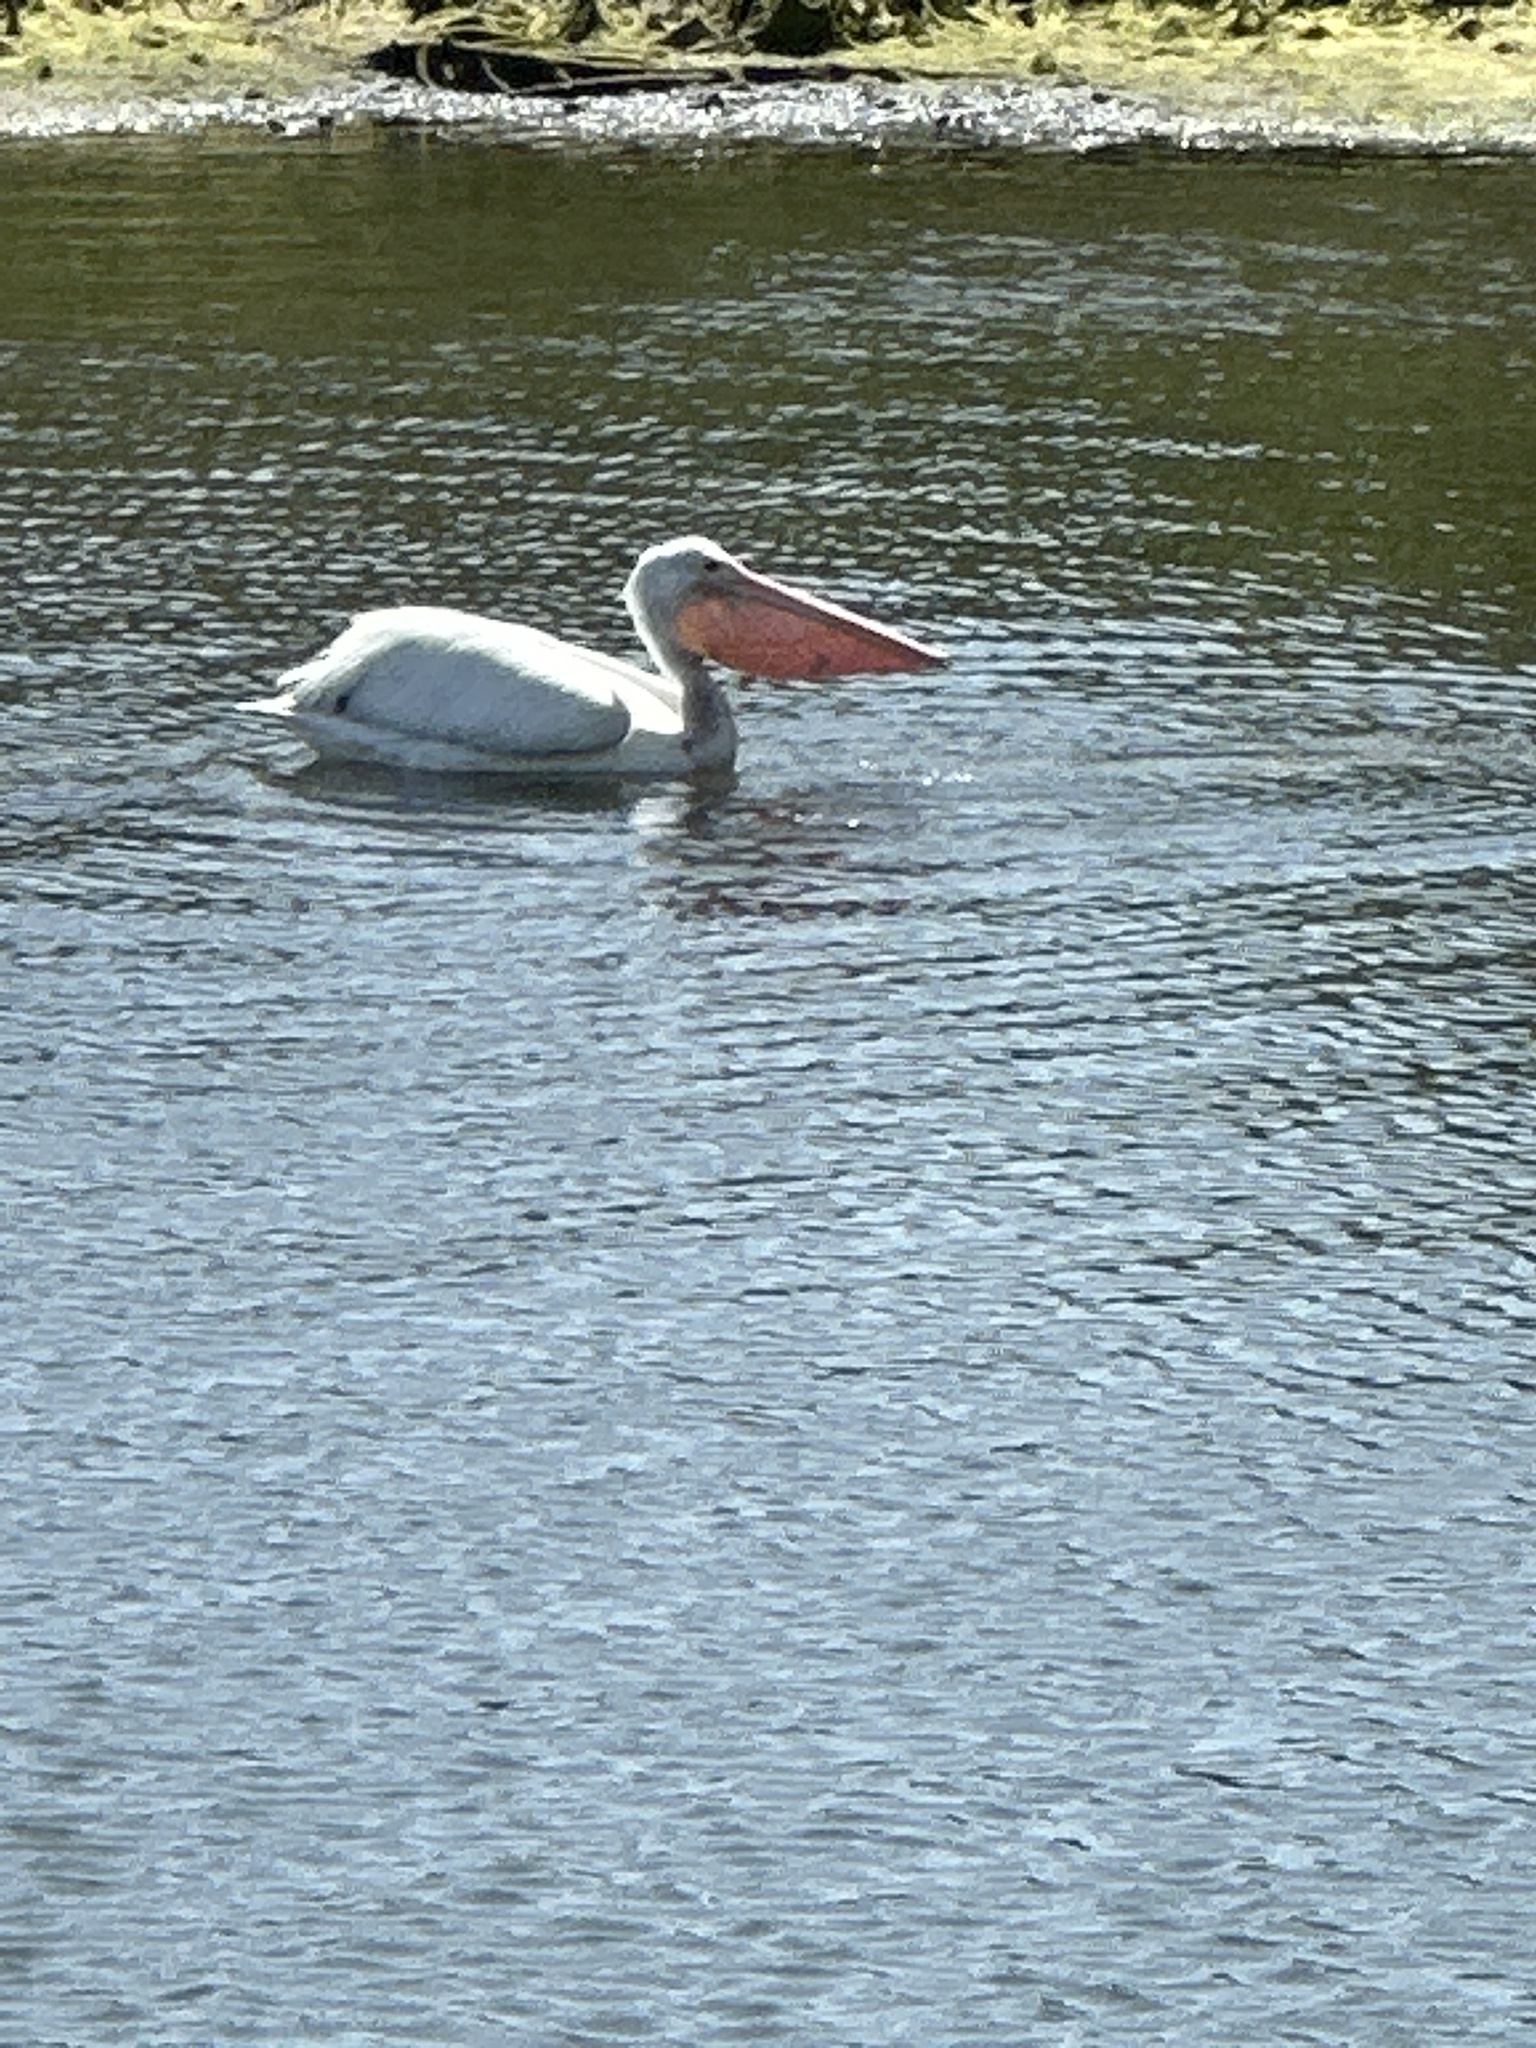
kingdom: Animalia
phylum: Chordata
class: Aves
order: Pelecaniformes
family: Pelecanidae
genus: Pelecanus
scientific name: Pelecanus erythrorhynchos
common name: American white pelican
